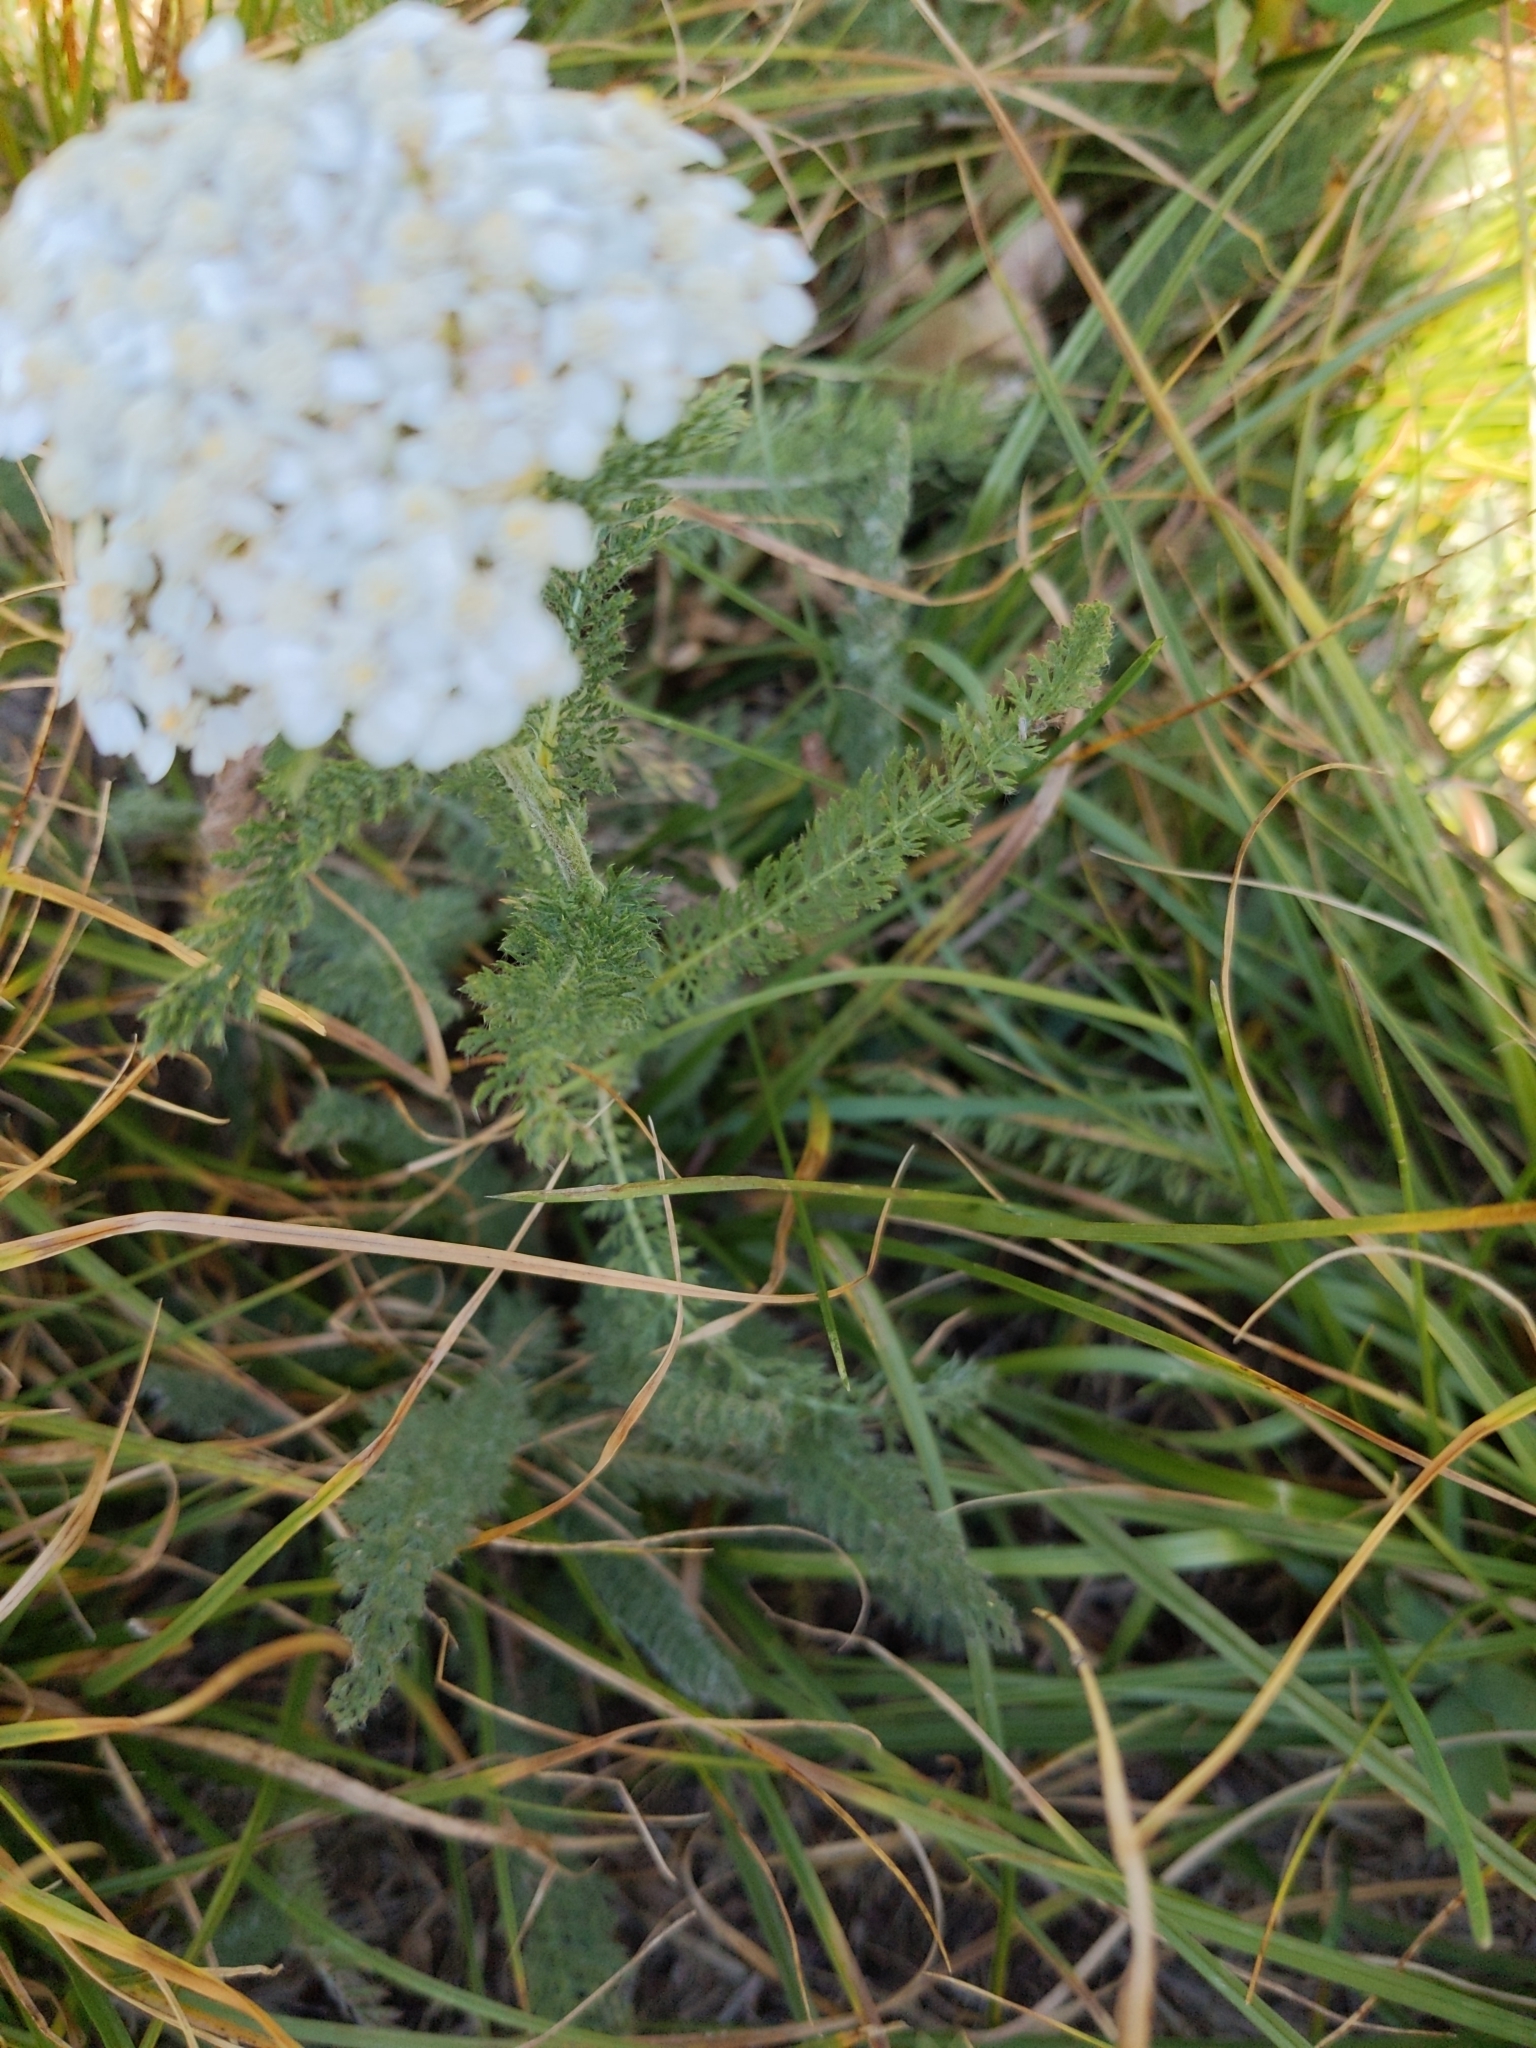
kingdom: Plantae
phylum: Tracheophyta
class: Magnoliopsida
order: Asterales
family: Asteraceae
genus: Achillea
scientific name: Achillea millefolium
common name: Yarrow
